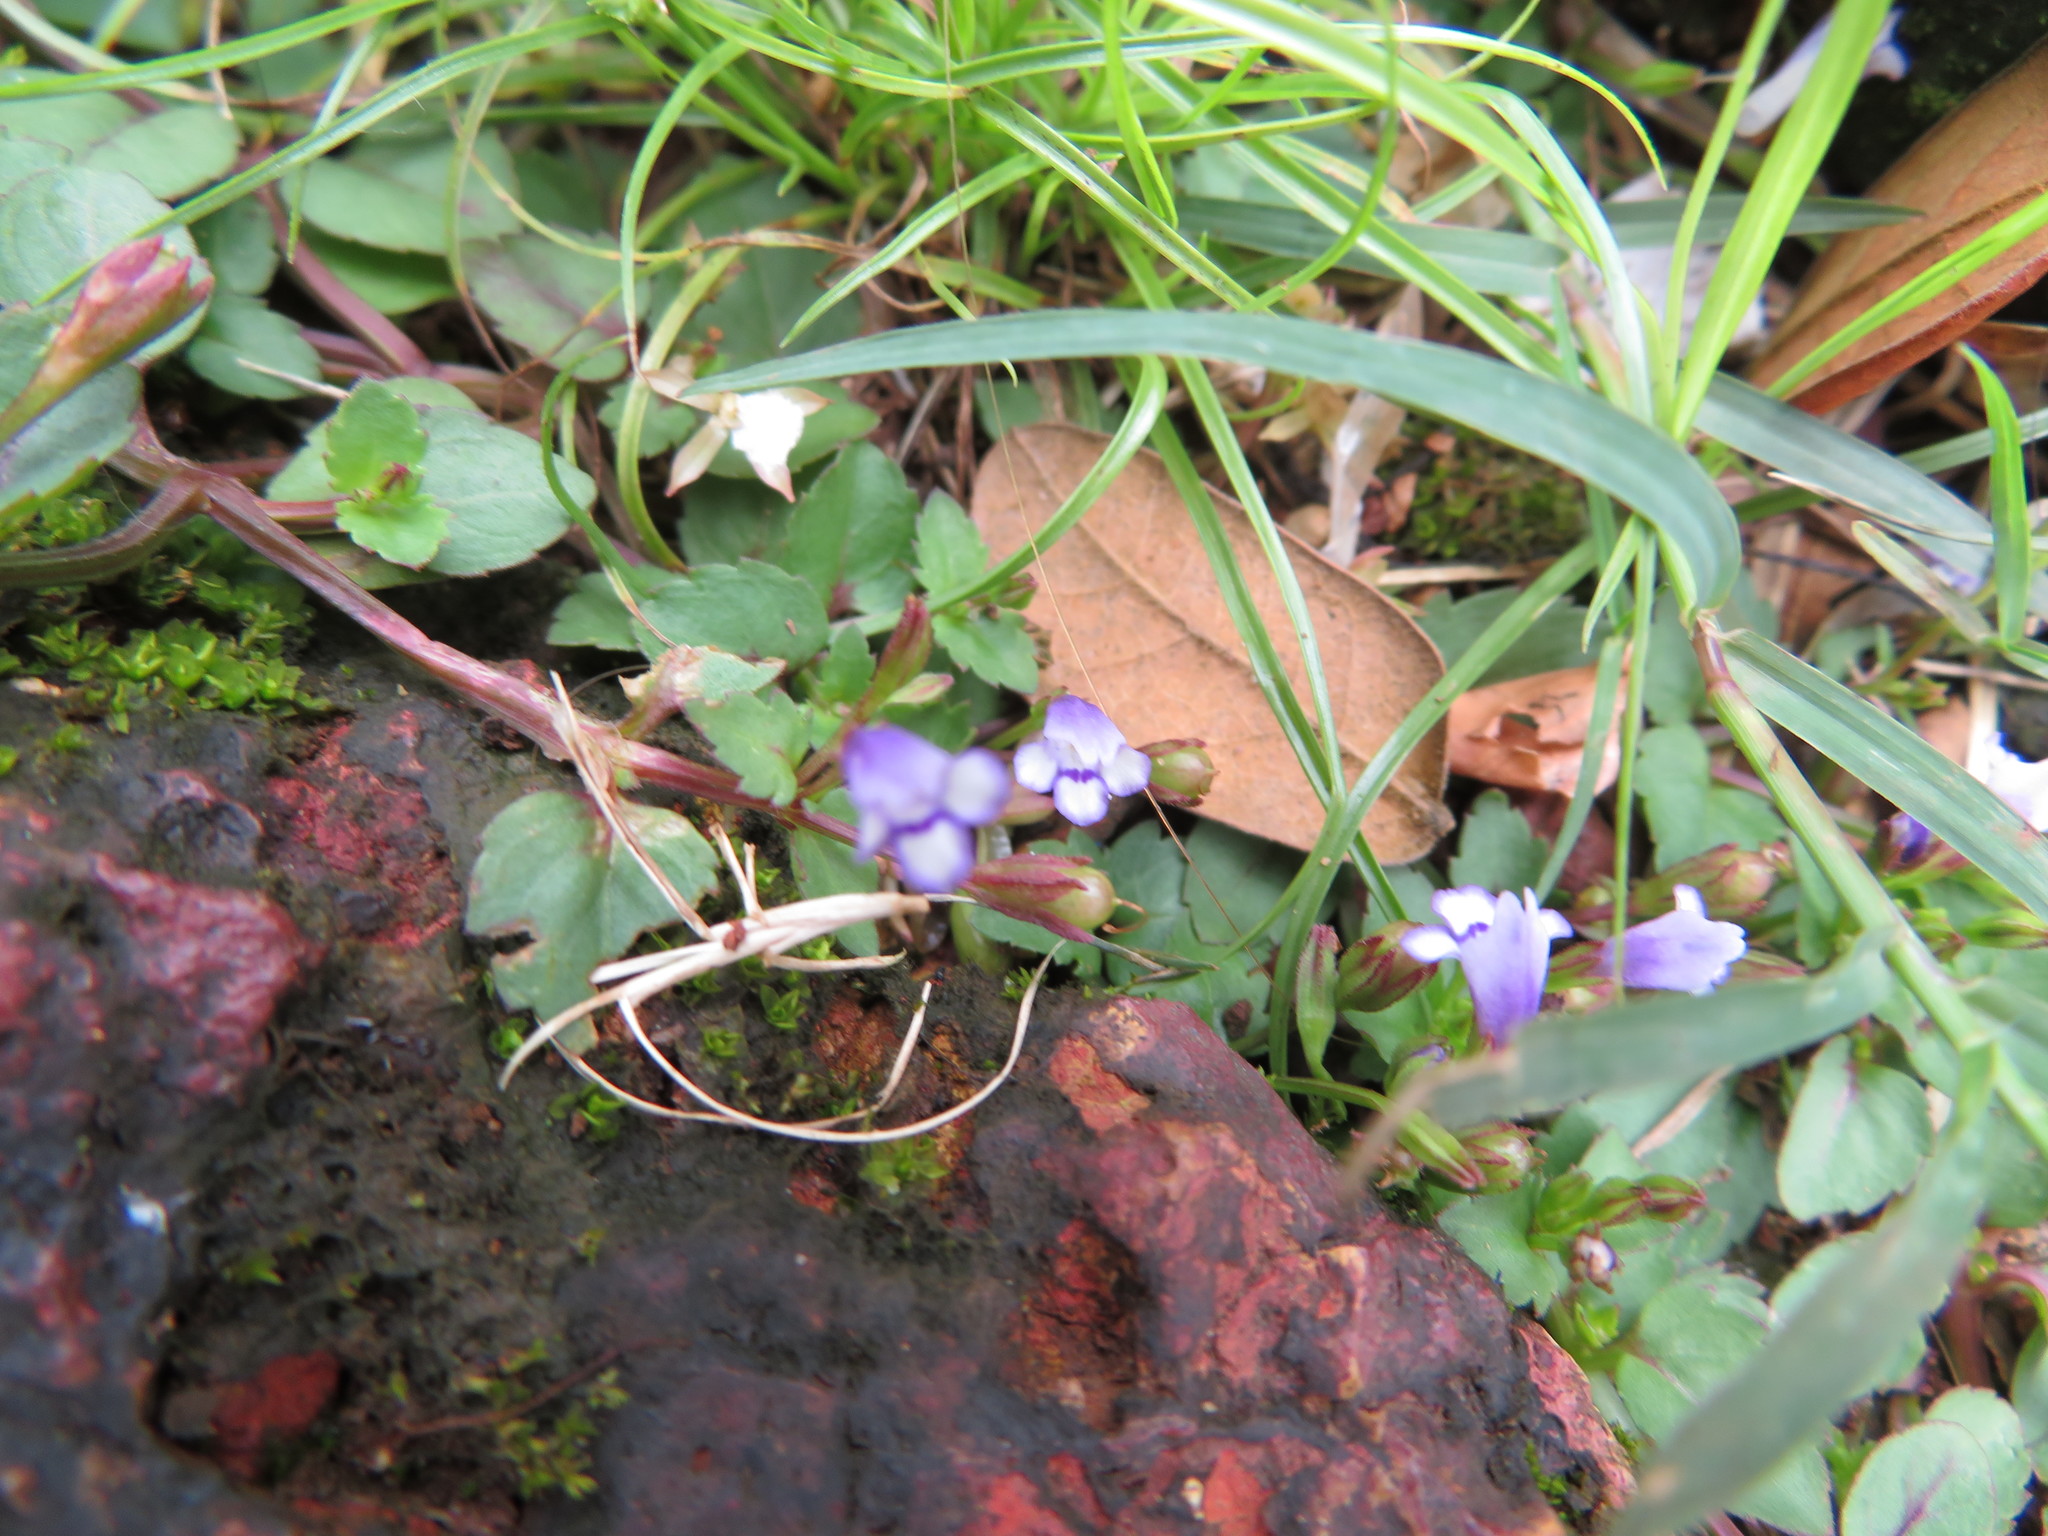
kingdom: Plantae
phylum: Tracheophyta
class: Magnoliopsida
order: Lamiales
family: Linderniaceae
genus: Torenia
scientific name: Torenia crustacea
